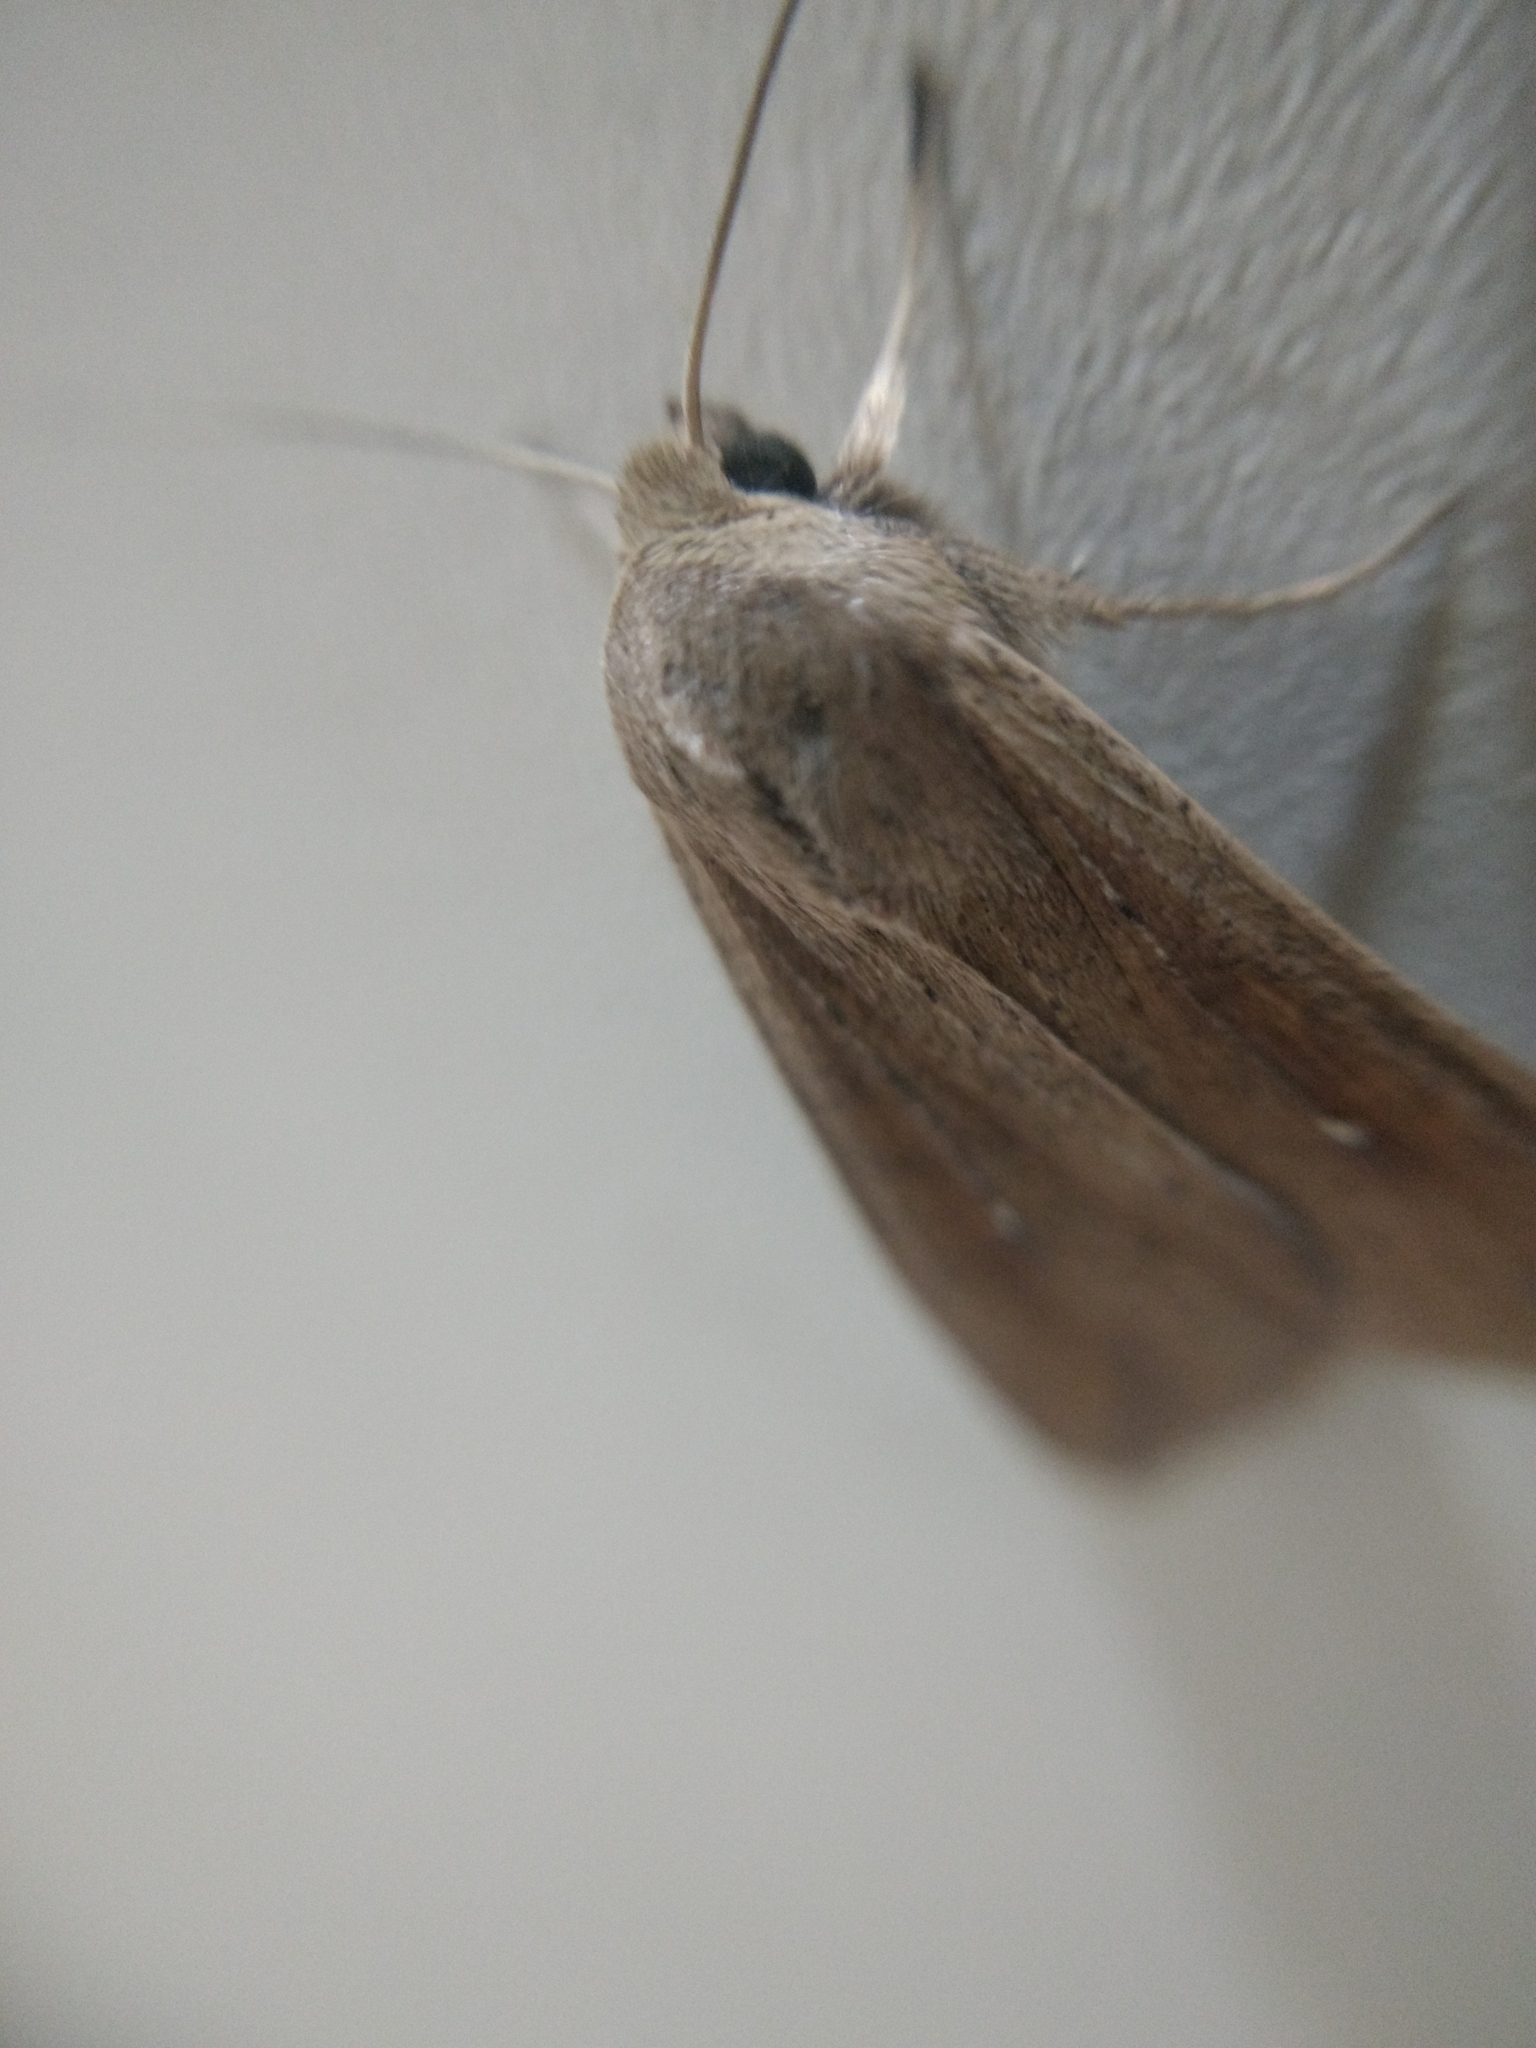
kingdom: Animalia
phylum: Arthropoda
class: Insecta
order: Lepidoptera
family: Noctuidae
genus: Mythimna
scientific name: Mythimna unipuncta
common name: White-speck
